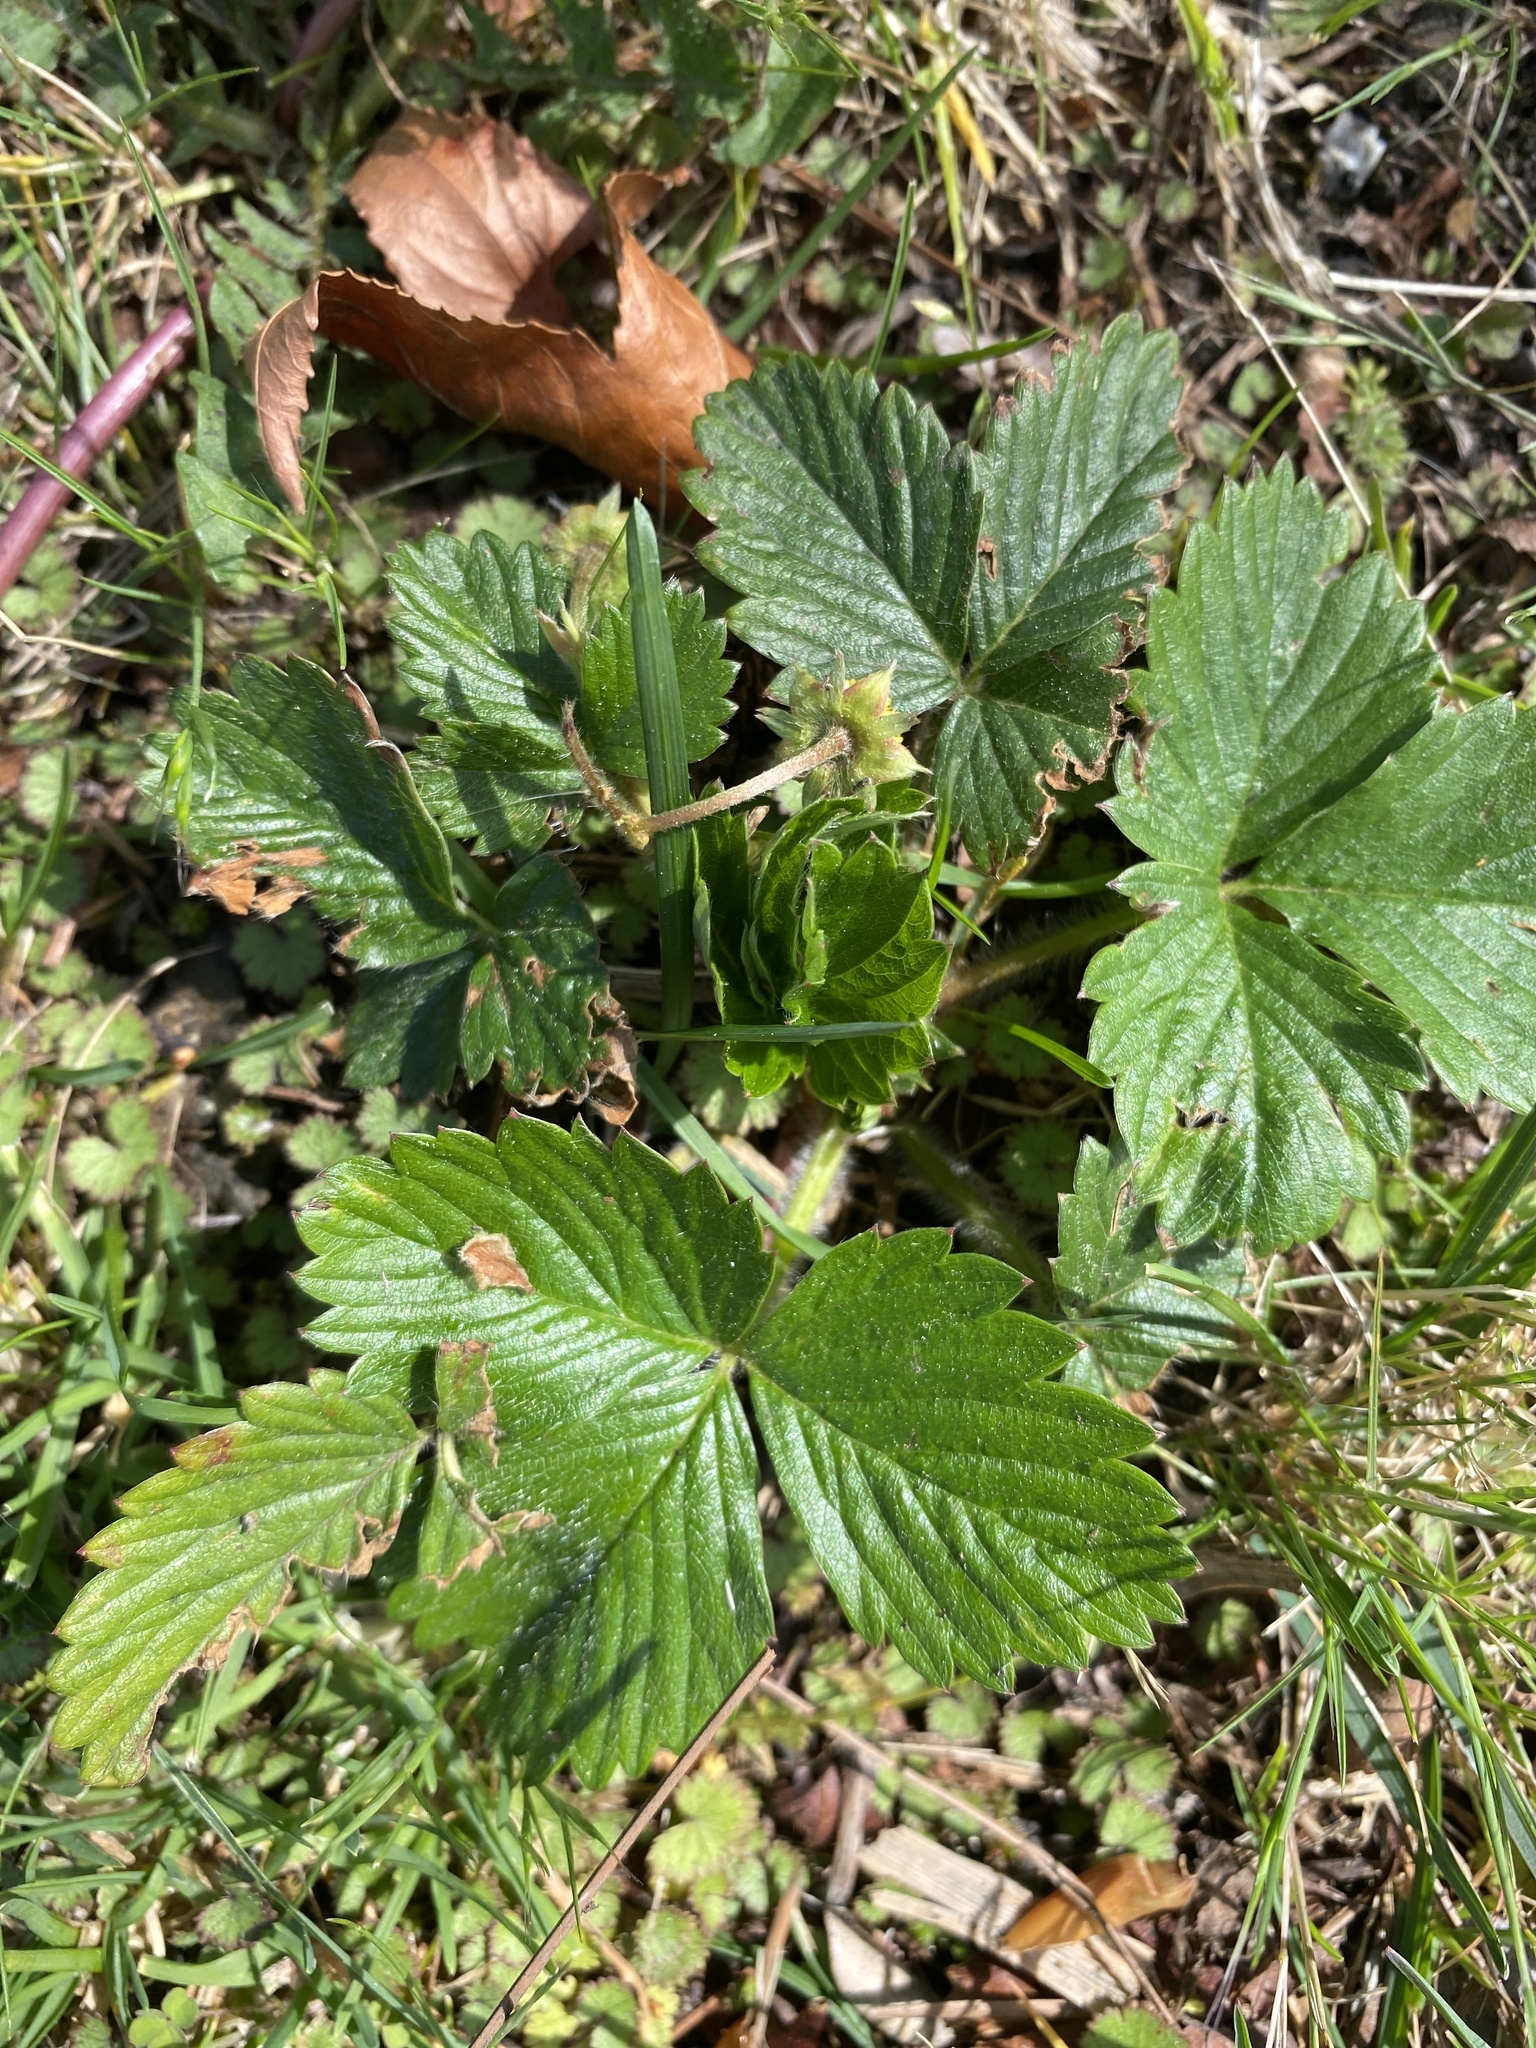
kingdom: Plantae
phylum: Tracheophyta
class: Magnoliopsida
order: Rosales
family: Rosaceae
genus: Fragaria
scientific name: Fragaria vesca
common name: Wild strawberry
